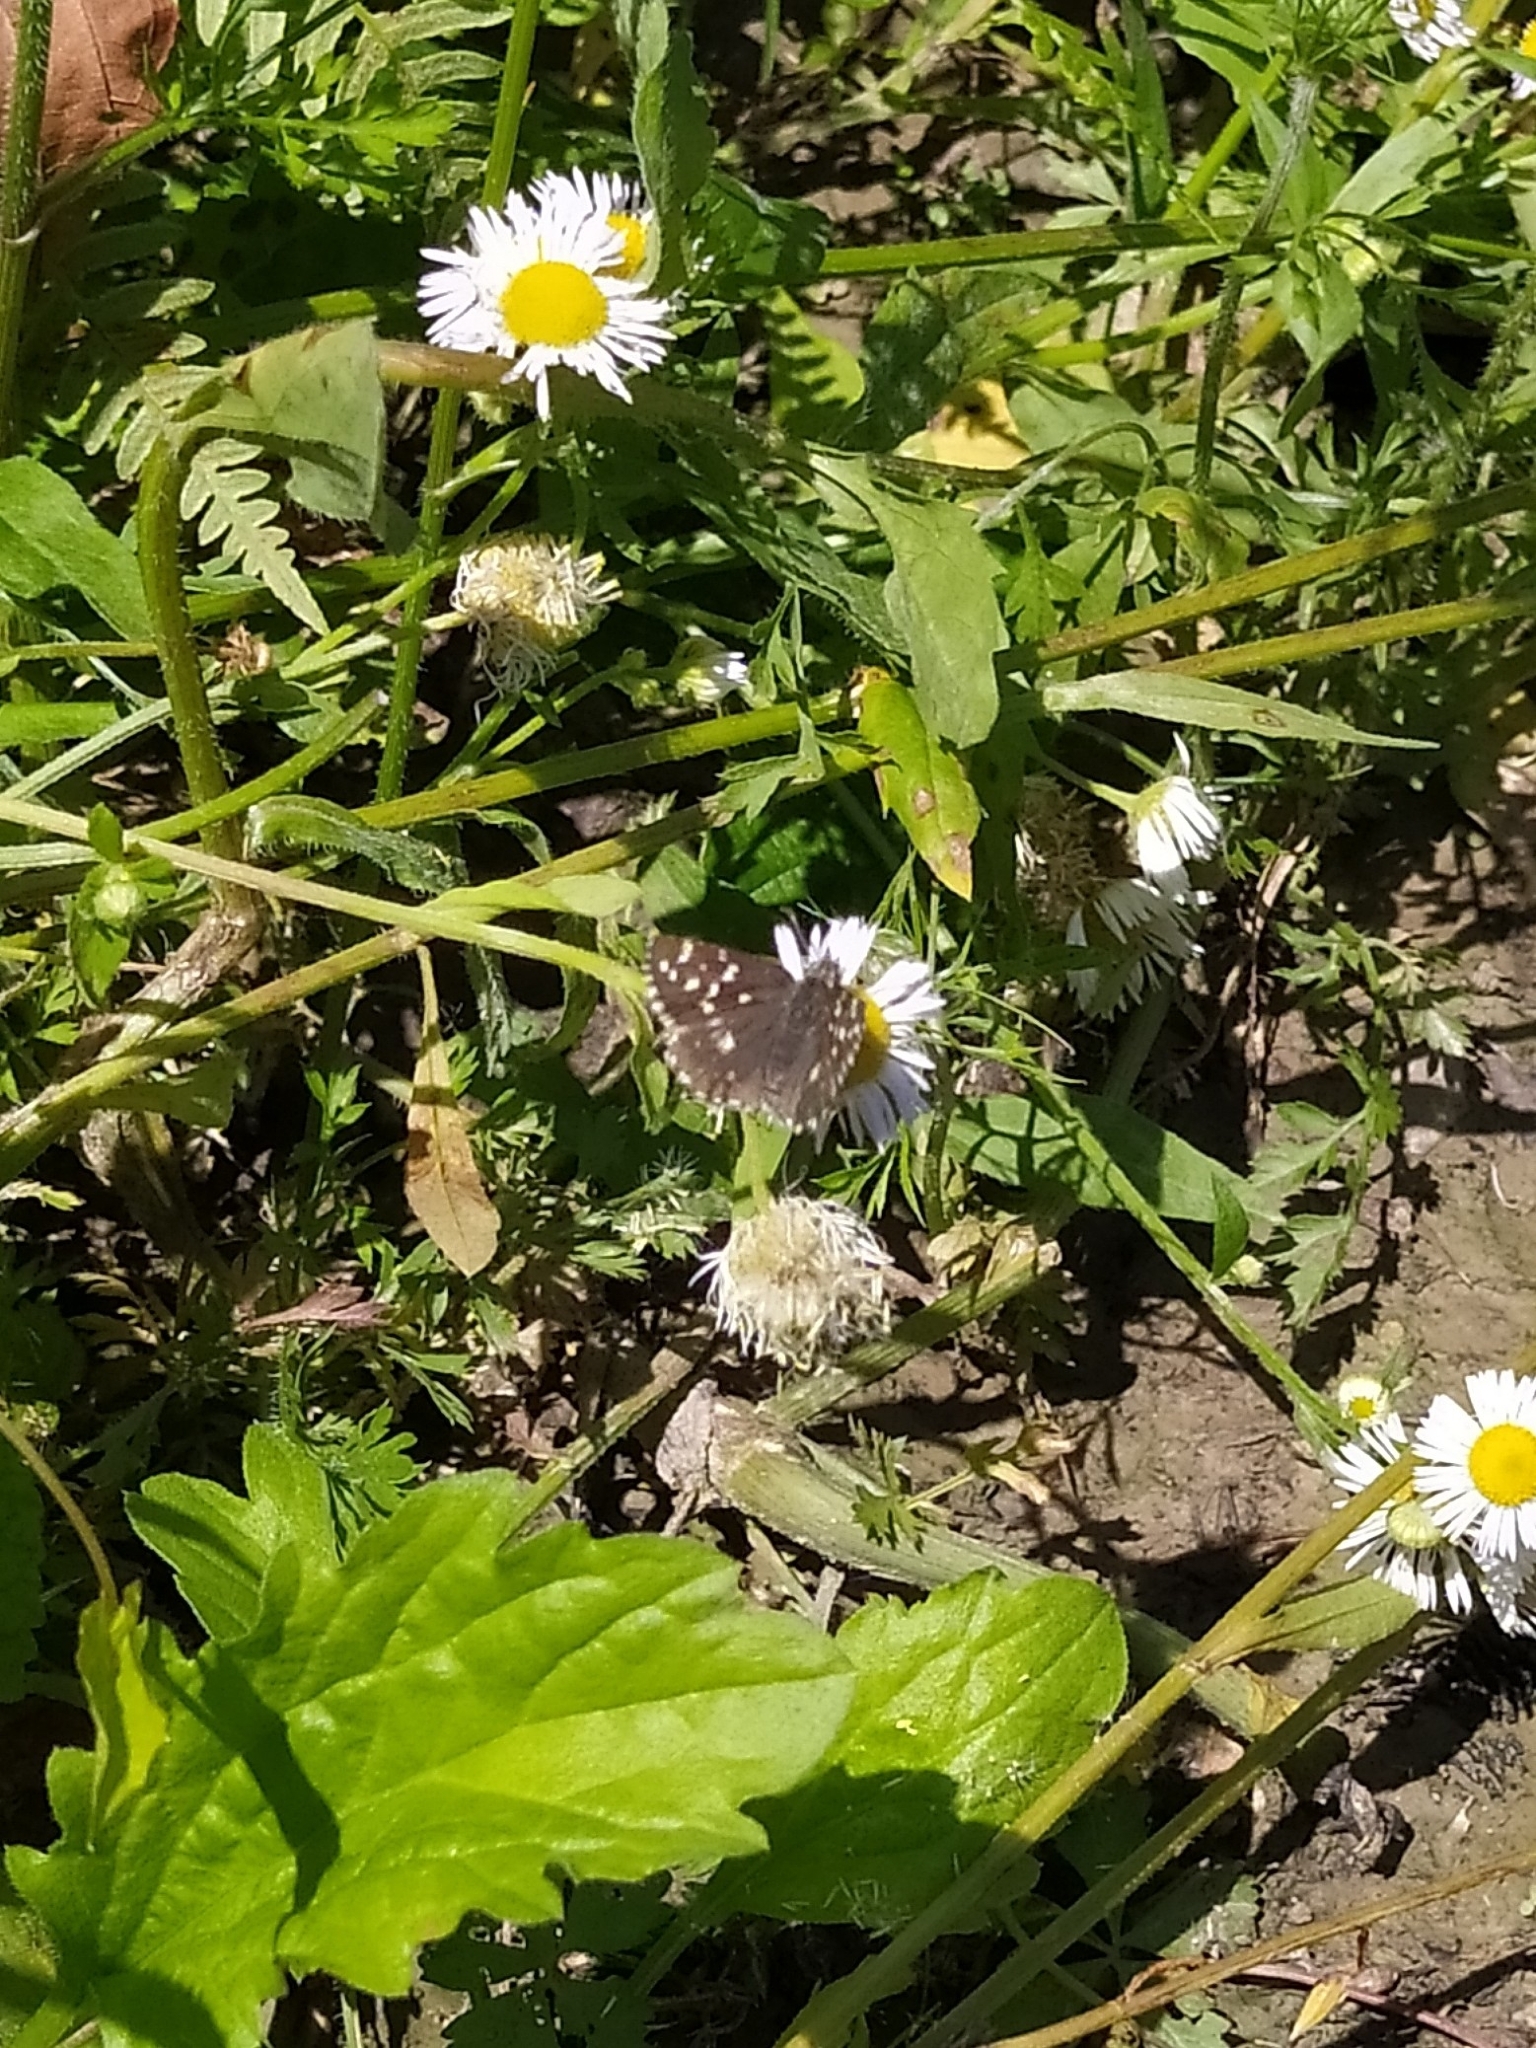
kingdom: Animalia
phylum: Arthropoda
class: Insecta
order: Lepidoptera
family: Hesperiidae
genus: Pyrgus
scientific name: Pyrgus melotis
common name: Aegean skipper
